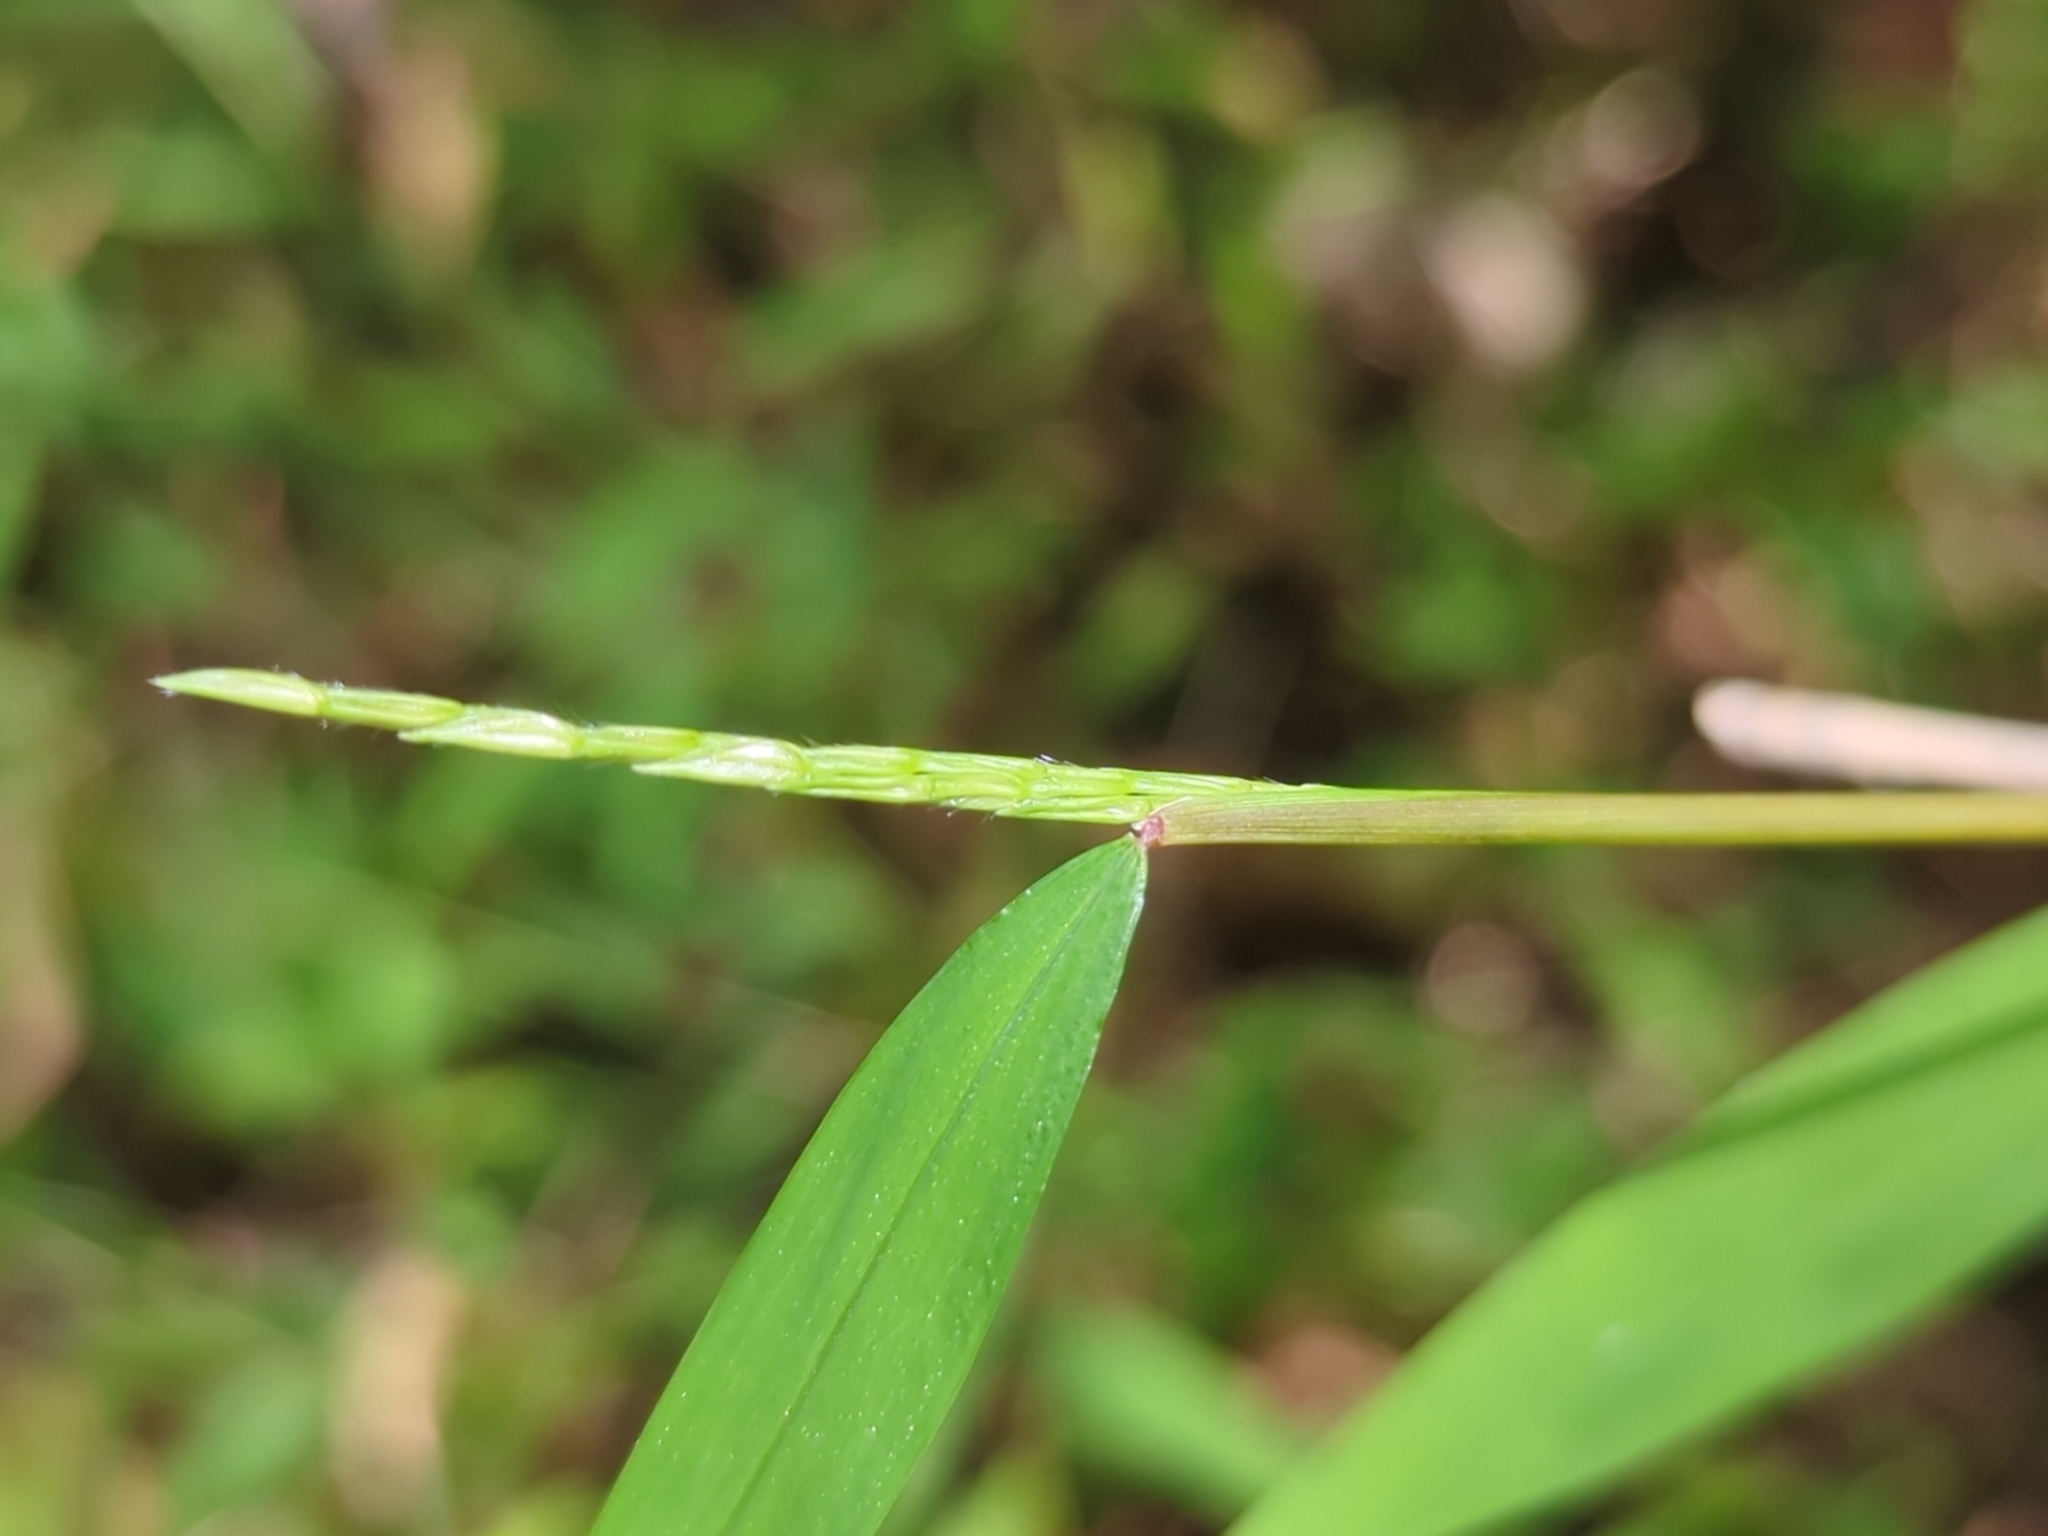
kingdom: Plantae
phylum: Tracheophyta
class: Liliopsida
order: Poales
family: Poaceae
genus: Microstegium
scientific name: Microstegium vimineum
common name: Japanese stiltgrass
